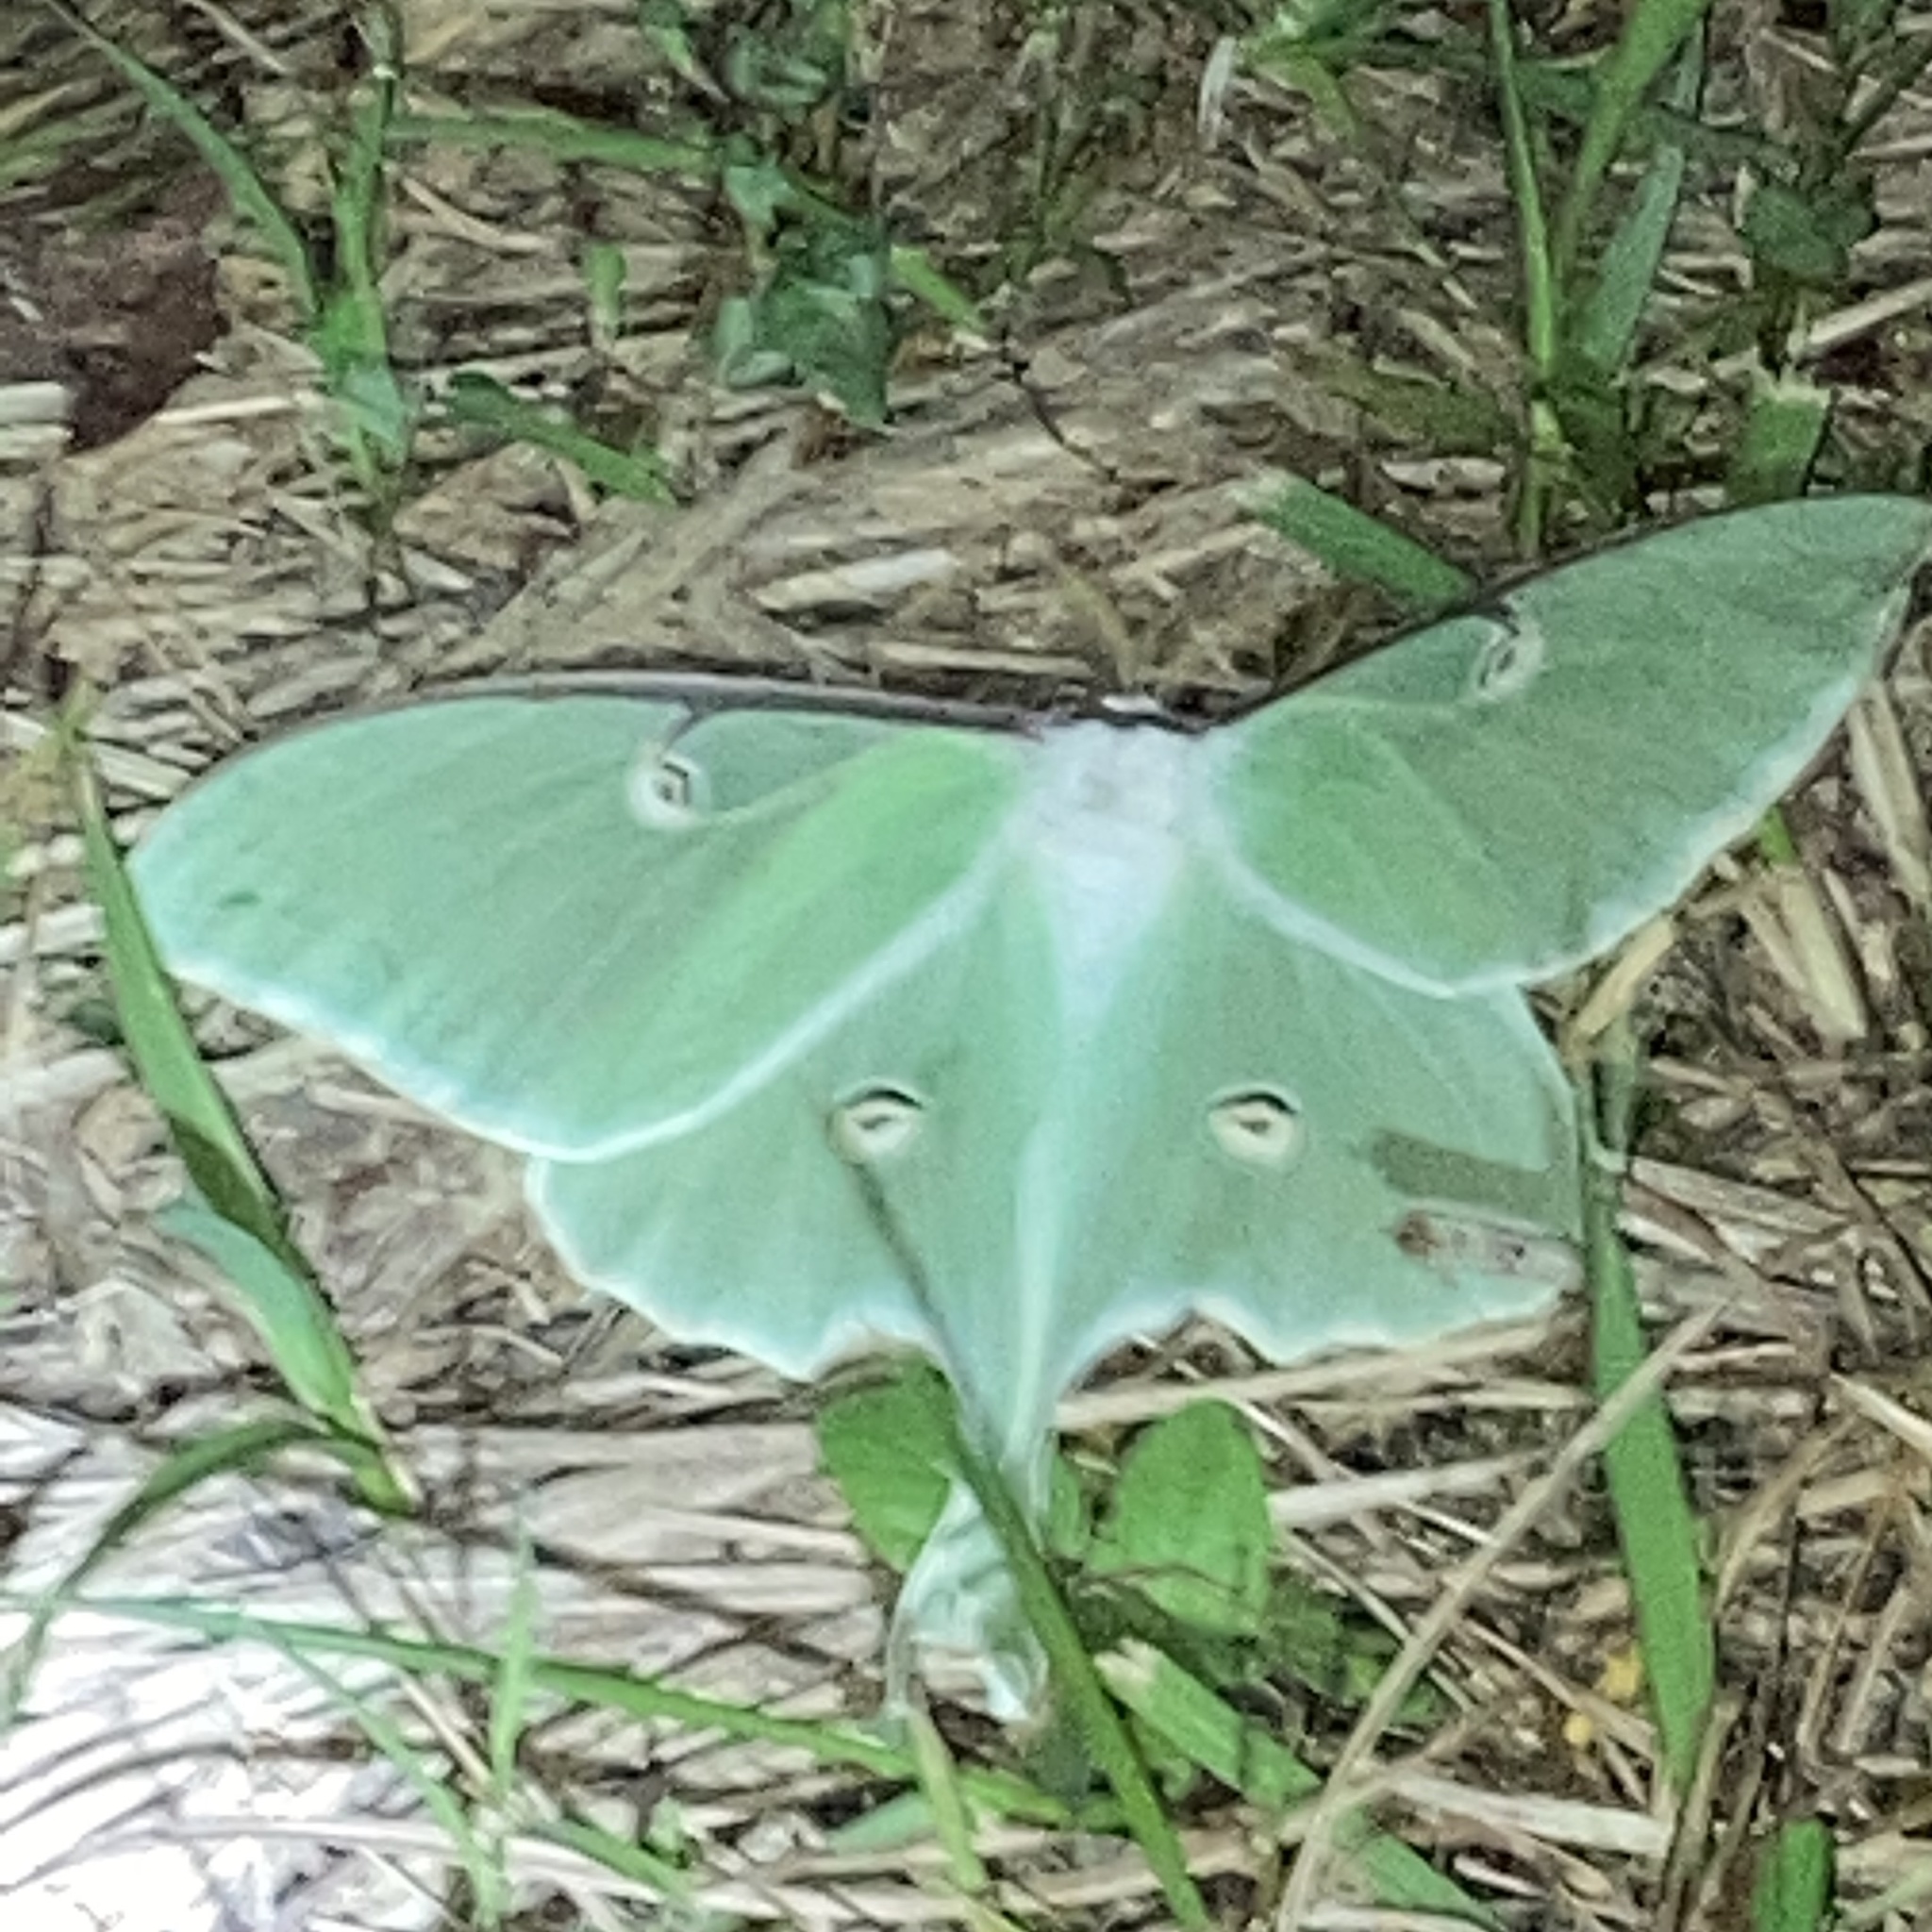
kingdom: Animalia
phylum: Arthropoda
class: Insecta
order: Lepidoptera
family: Saturniidae
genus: Actias
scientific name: Actias luna
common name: Luna moth
